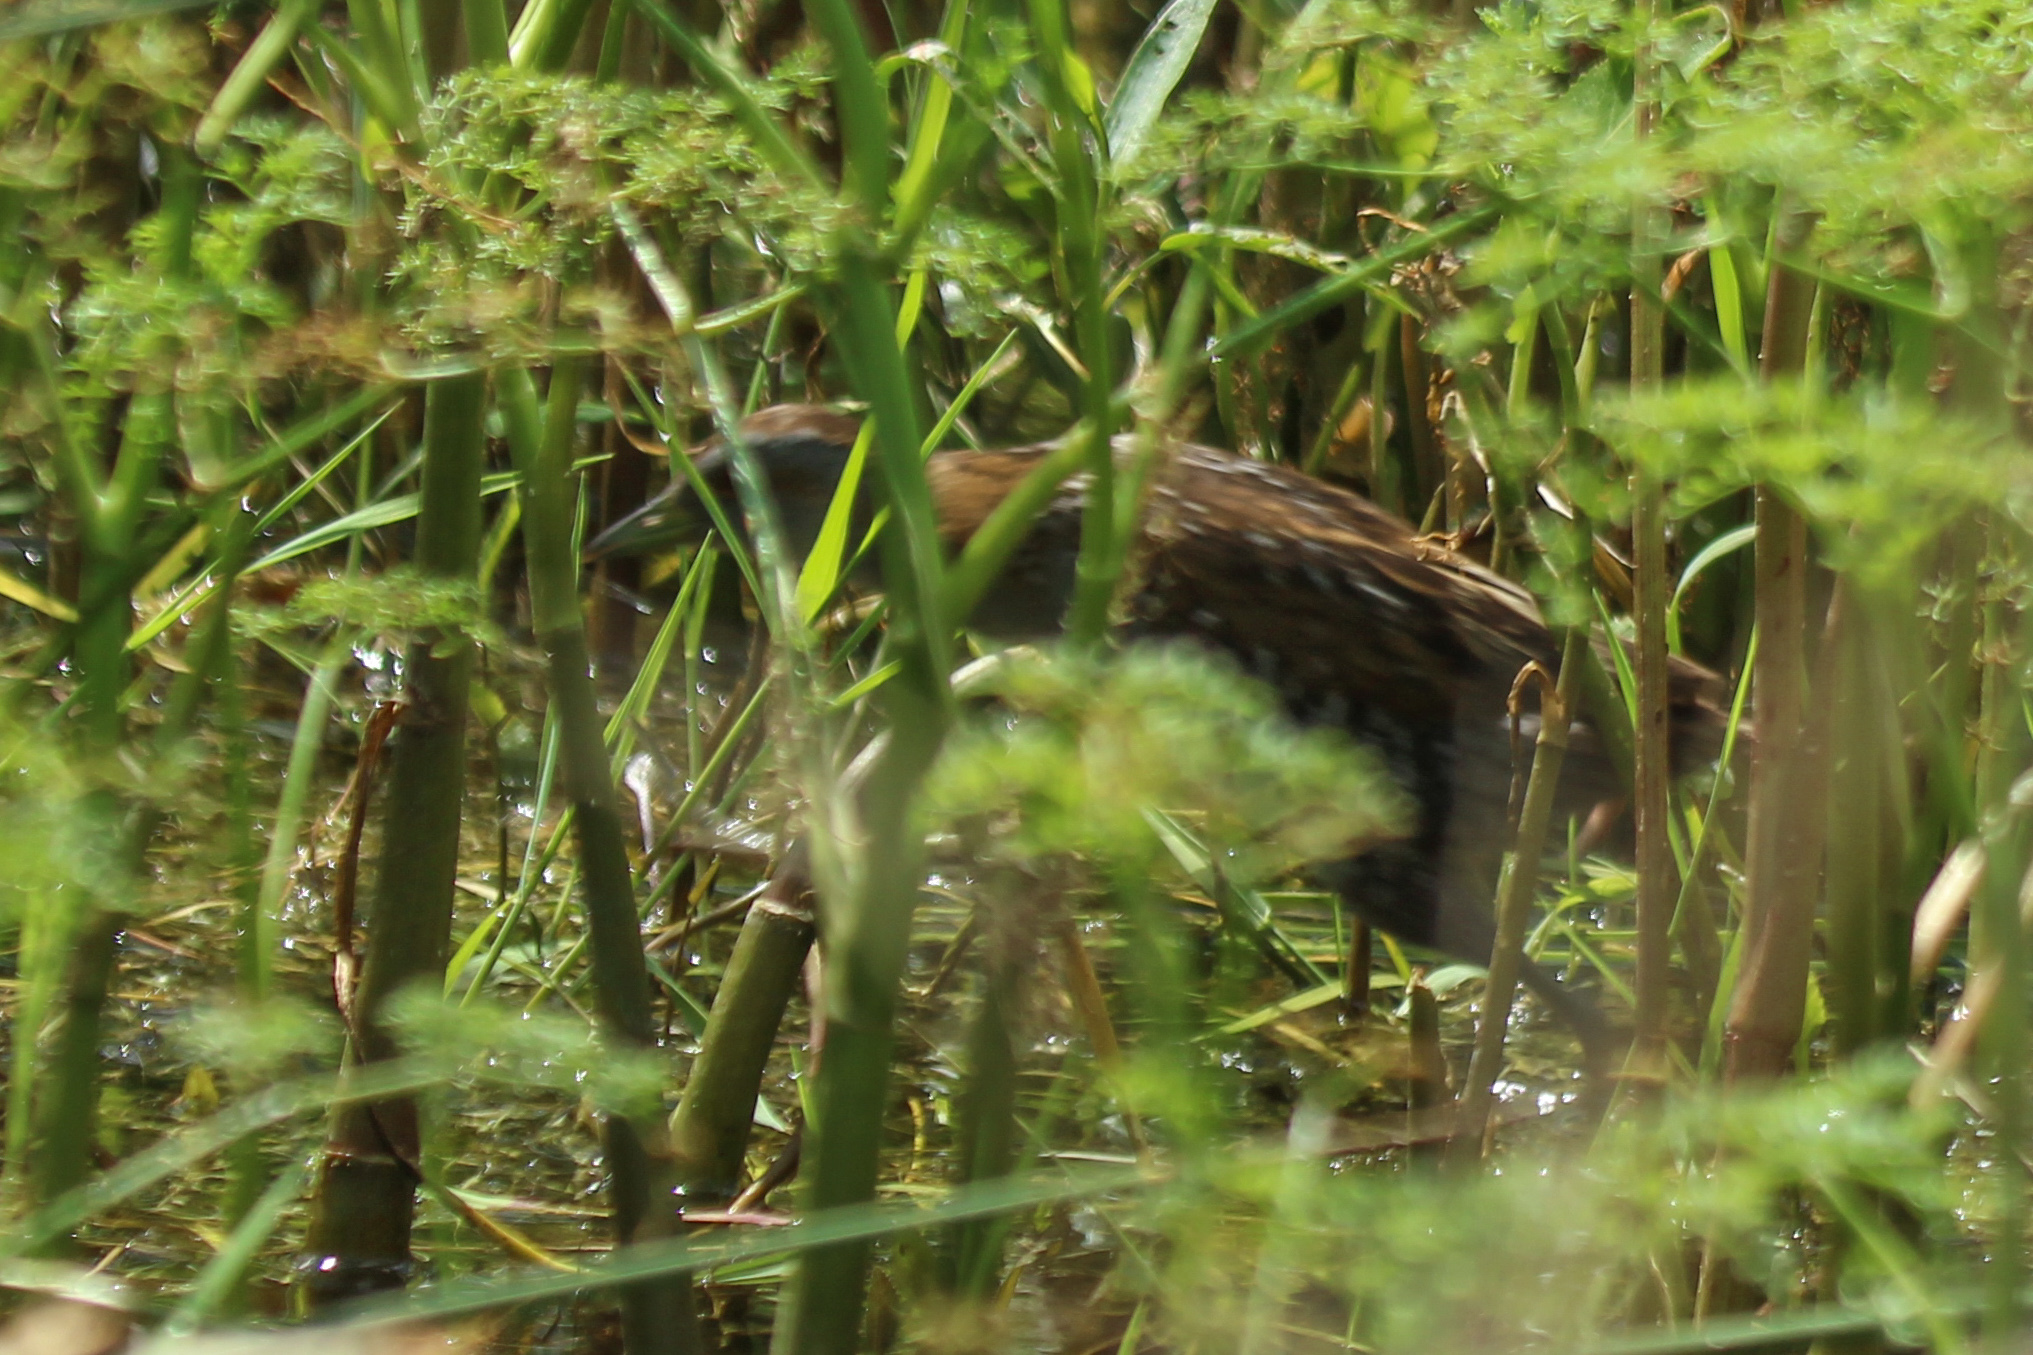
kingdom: Animalia
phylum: Chordata
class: Aves
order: Gruiformes
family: Rallidae
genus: Porzana
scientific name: Porzana pusilla
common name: Baillon's crake
